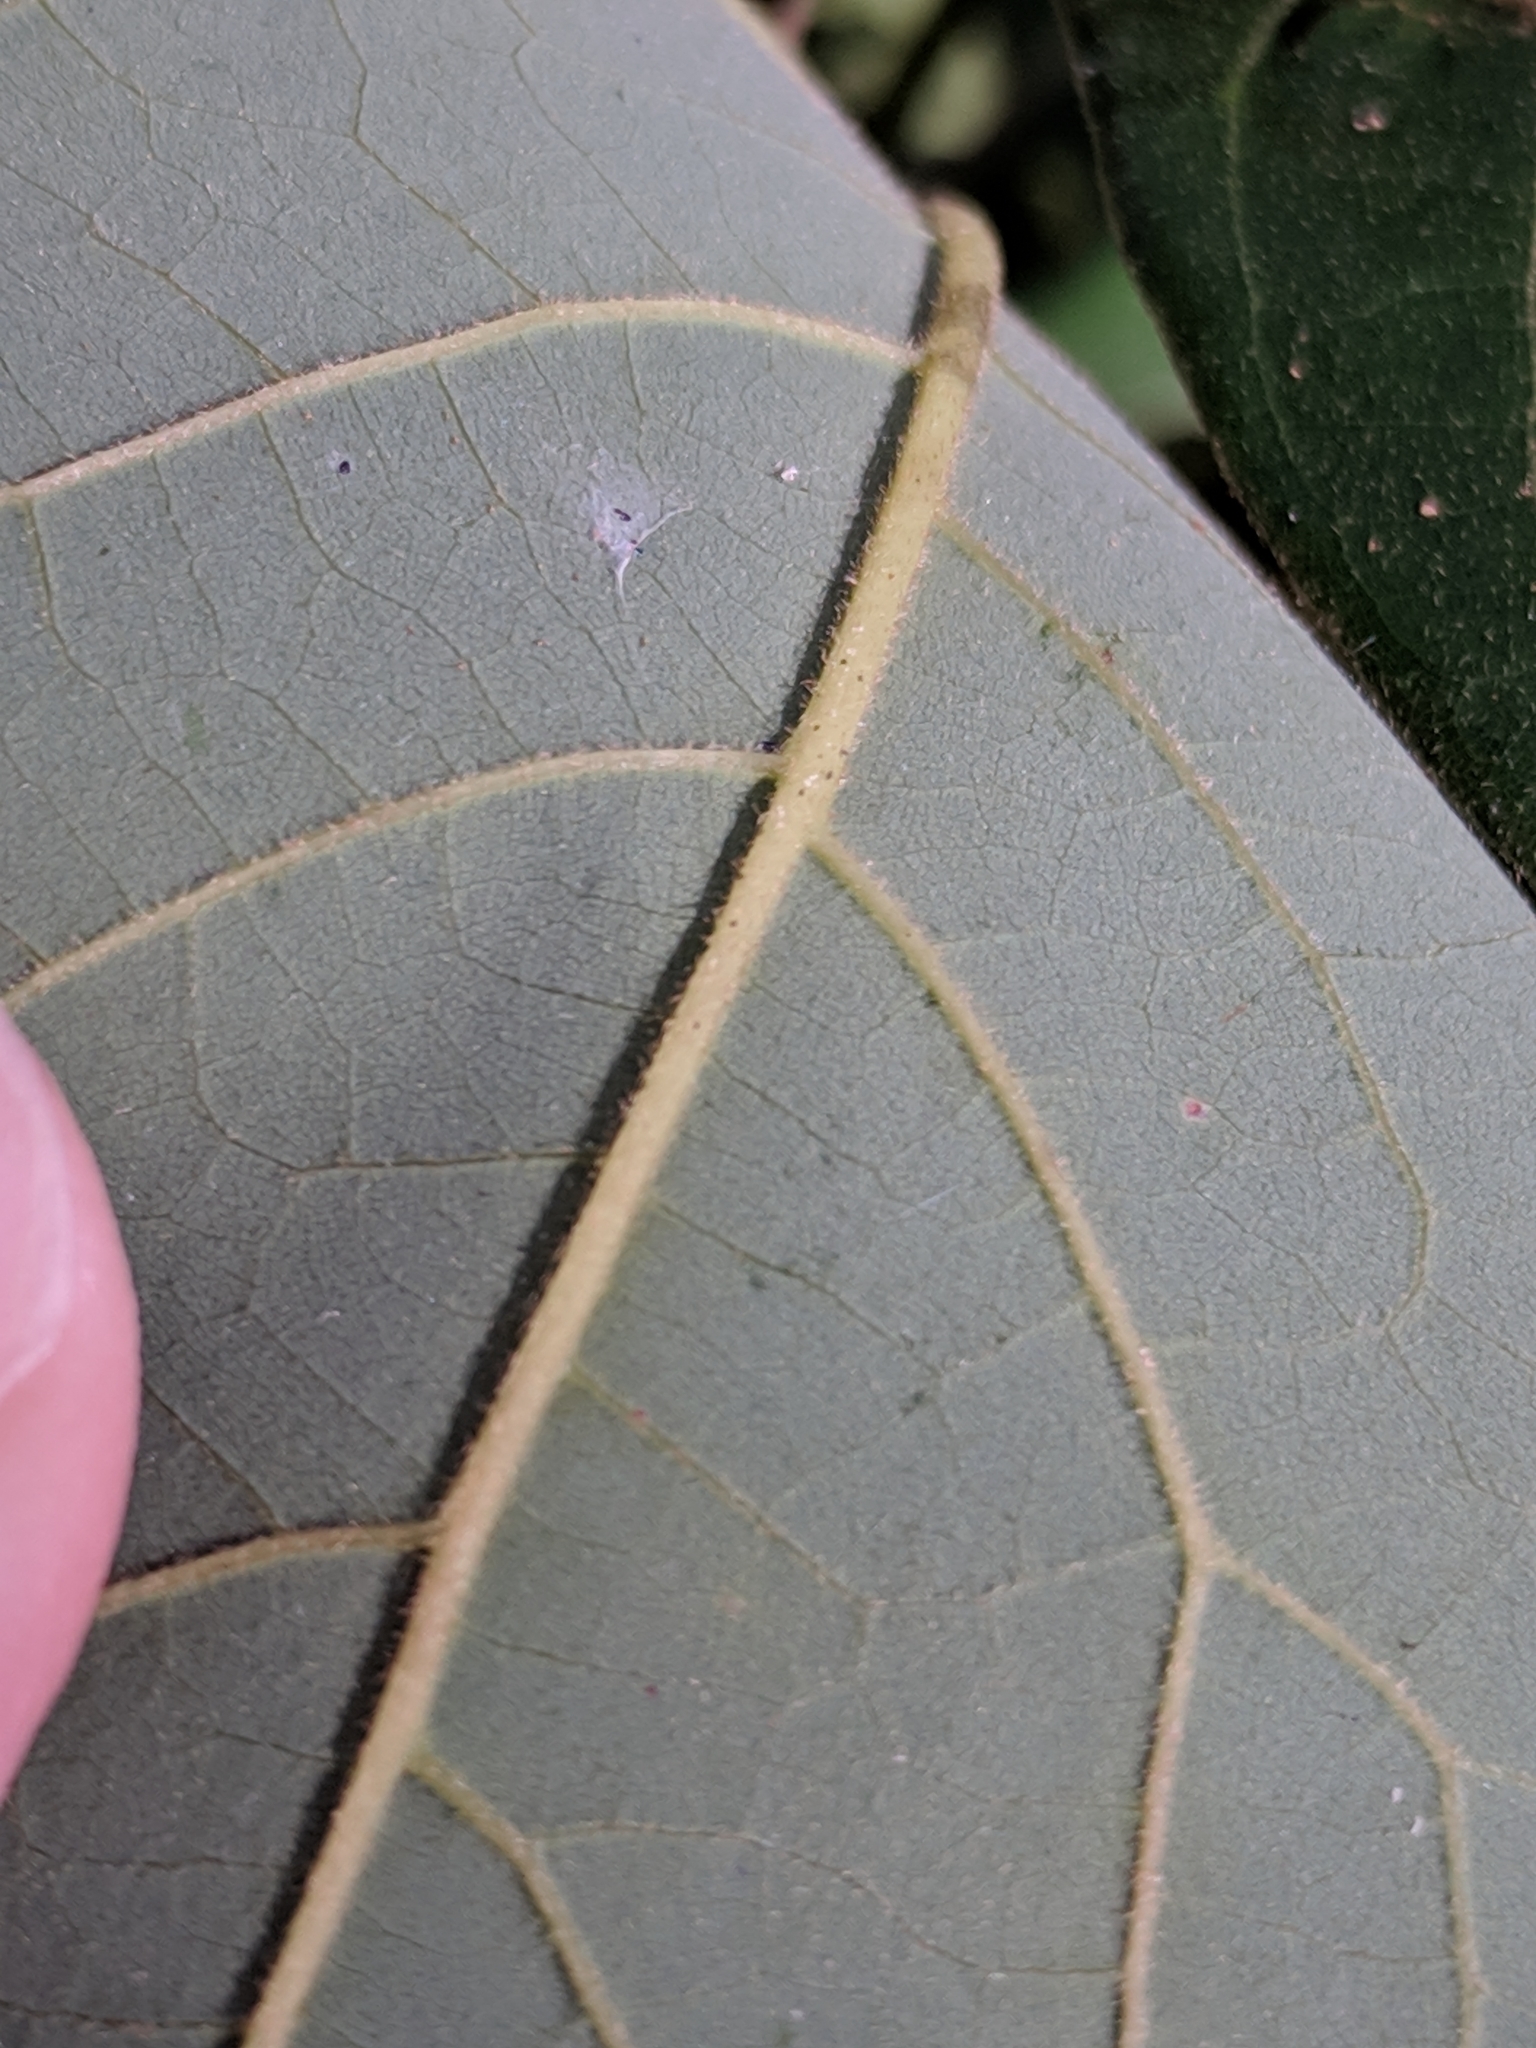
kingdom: Plantae
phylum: Tracheophyta
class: Magnoliopsida
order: Laurales
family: Lauraceae
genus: Persea
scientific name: Persea palustris
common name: Swampbay
